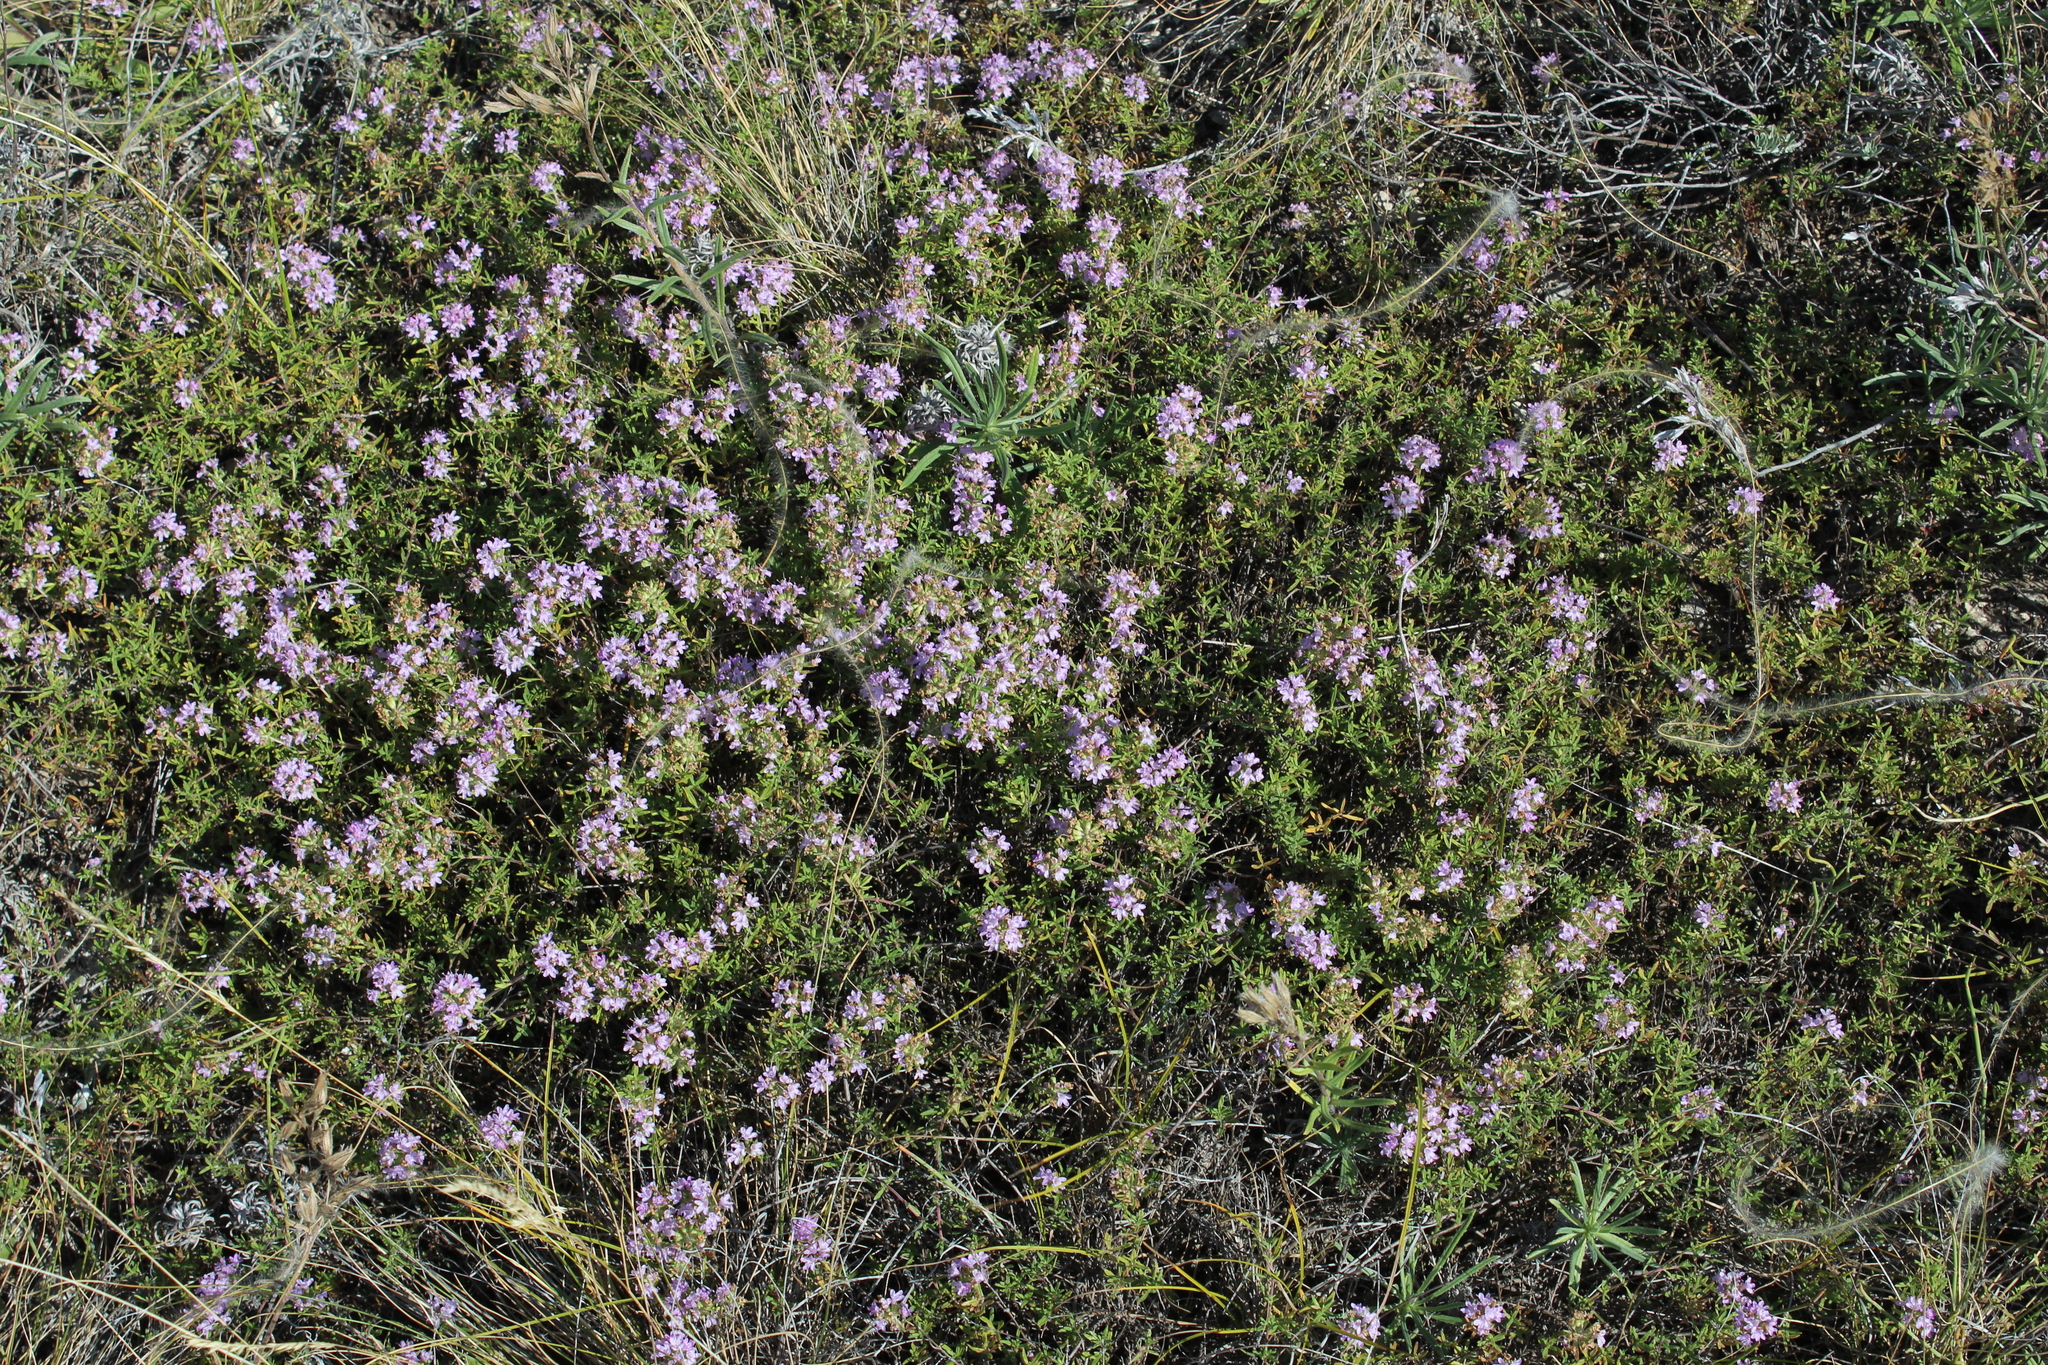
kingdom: Plantae
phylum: Tracheophyta
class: Magnoliopsida
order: Lamiales
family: Lamiaceae
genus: Thymus
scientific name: Thymus calcareus
